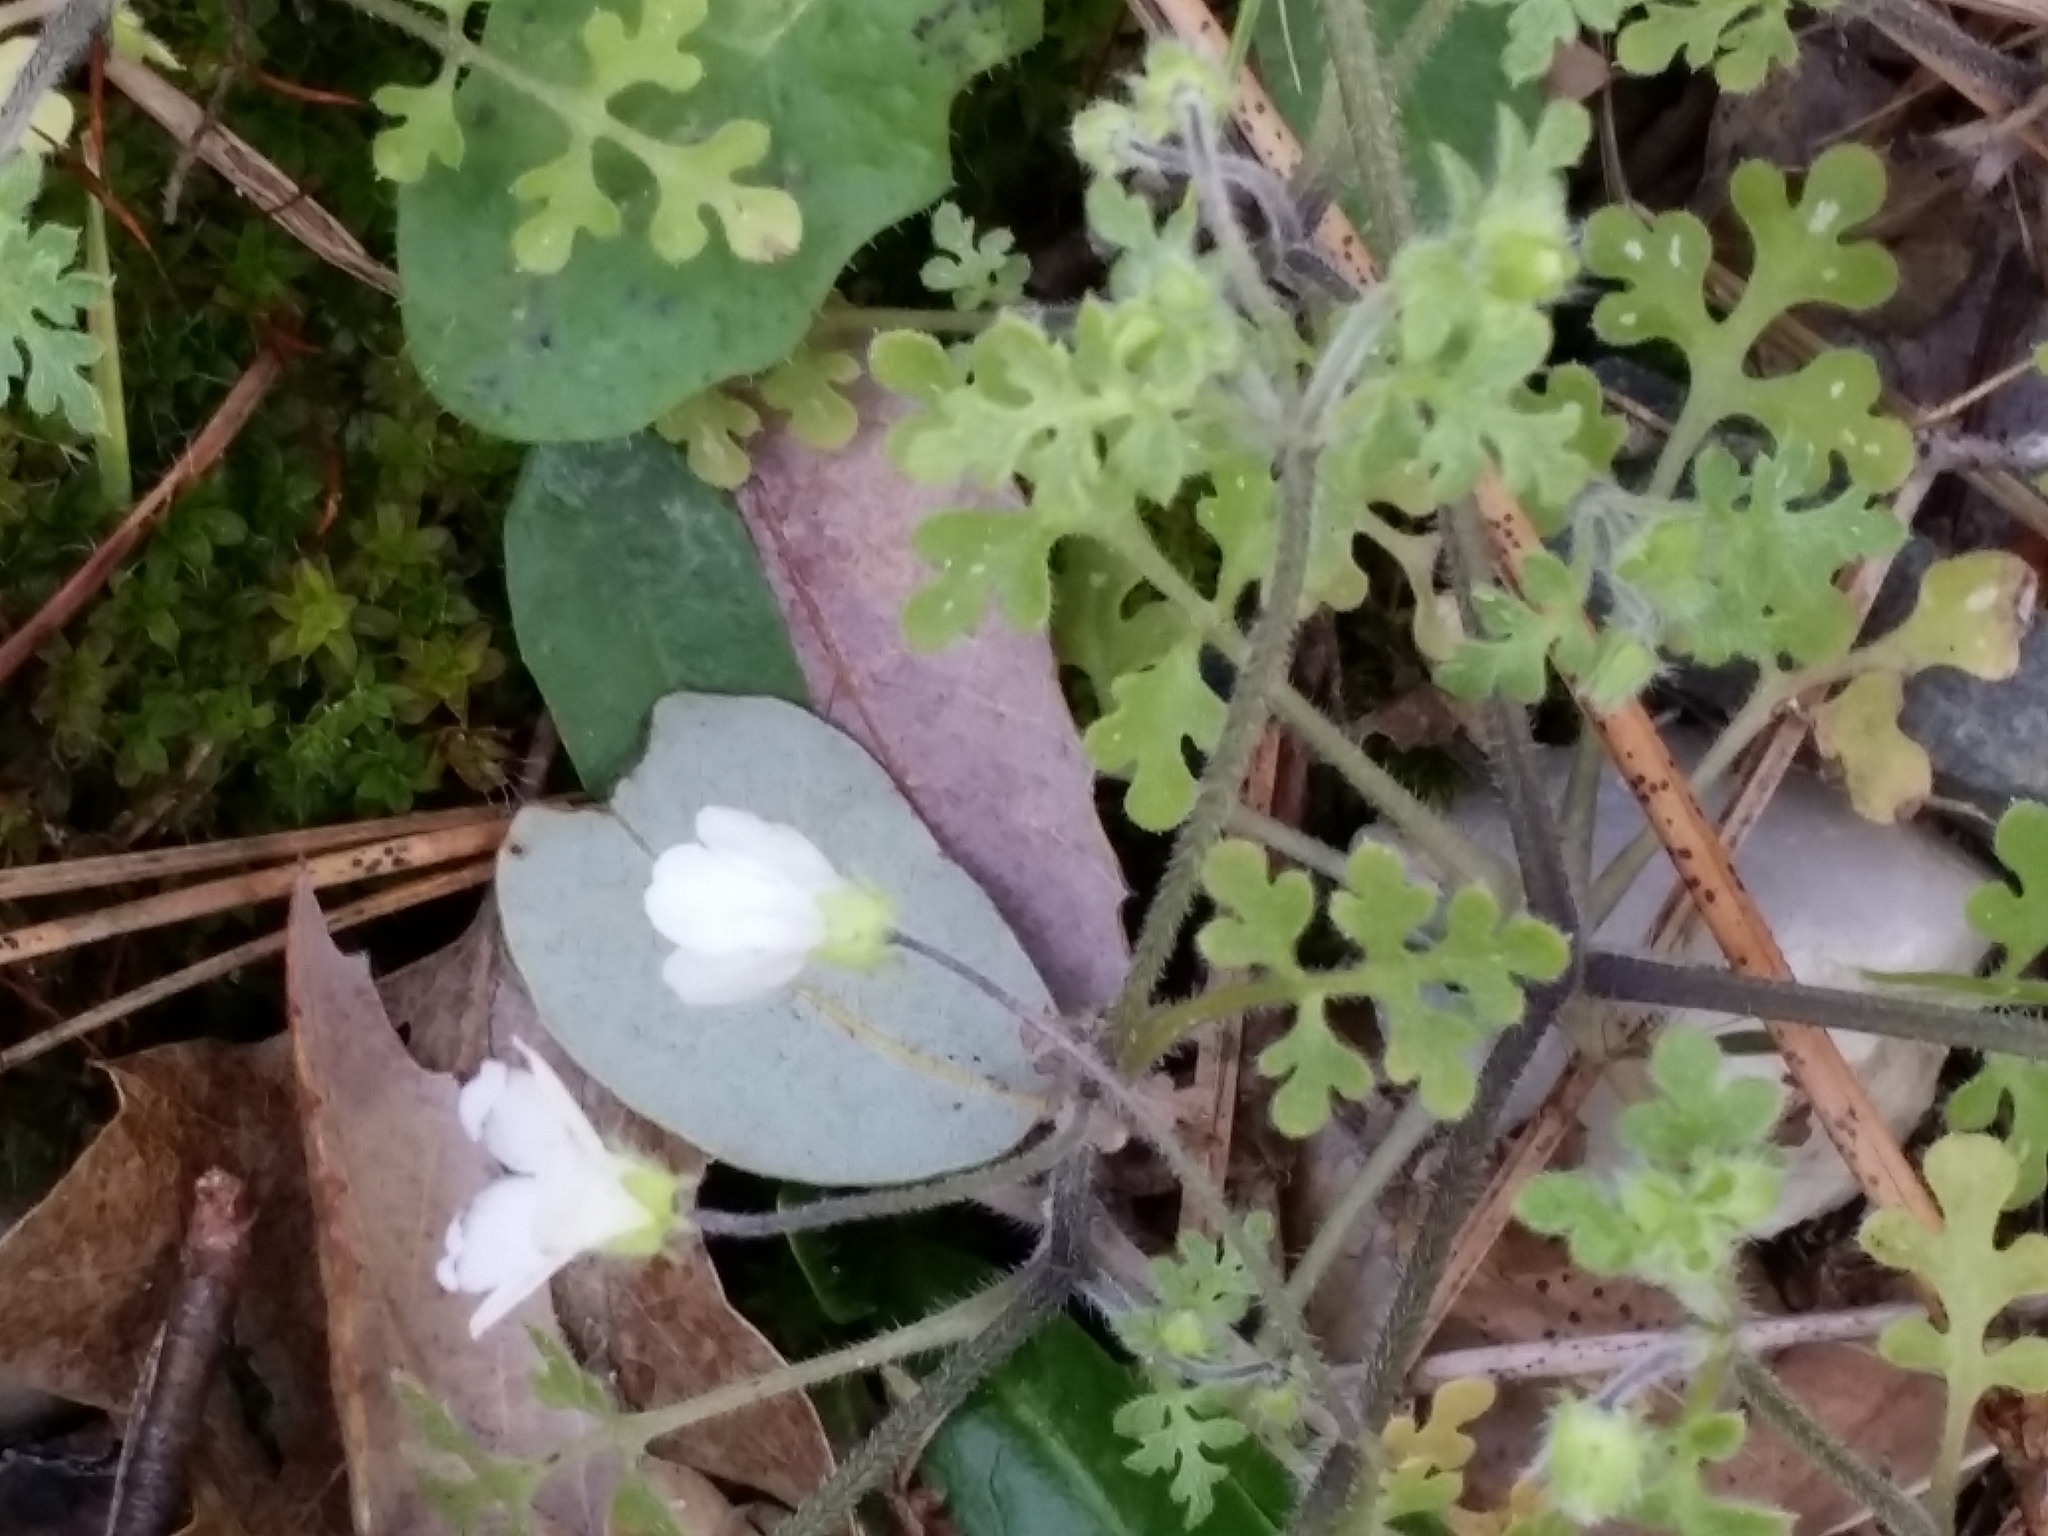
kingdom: Plantae
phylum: Tracheophyta
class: Magnoliopsida
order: Boraginales
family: Hydrophyllaceae
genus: Nemophila
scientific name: Nemophila heterophylla
